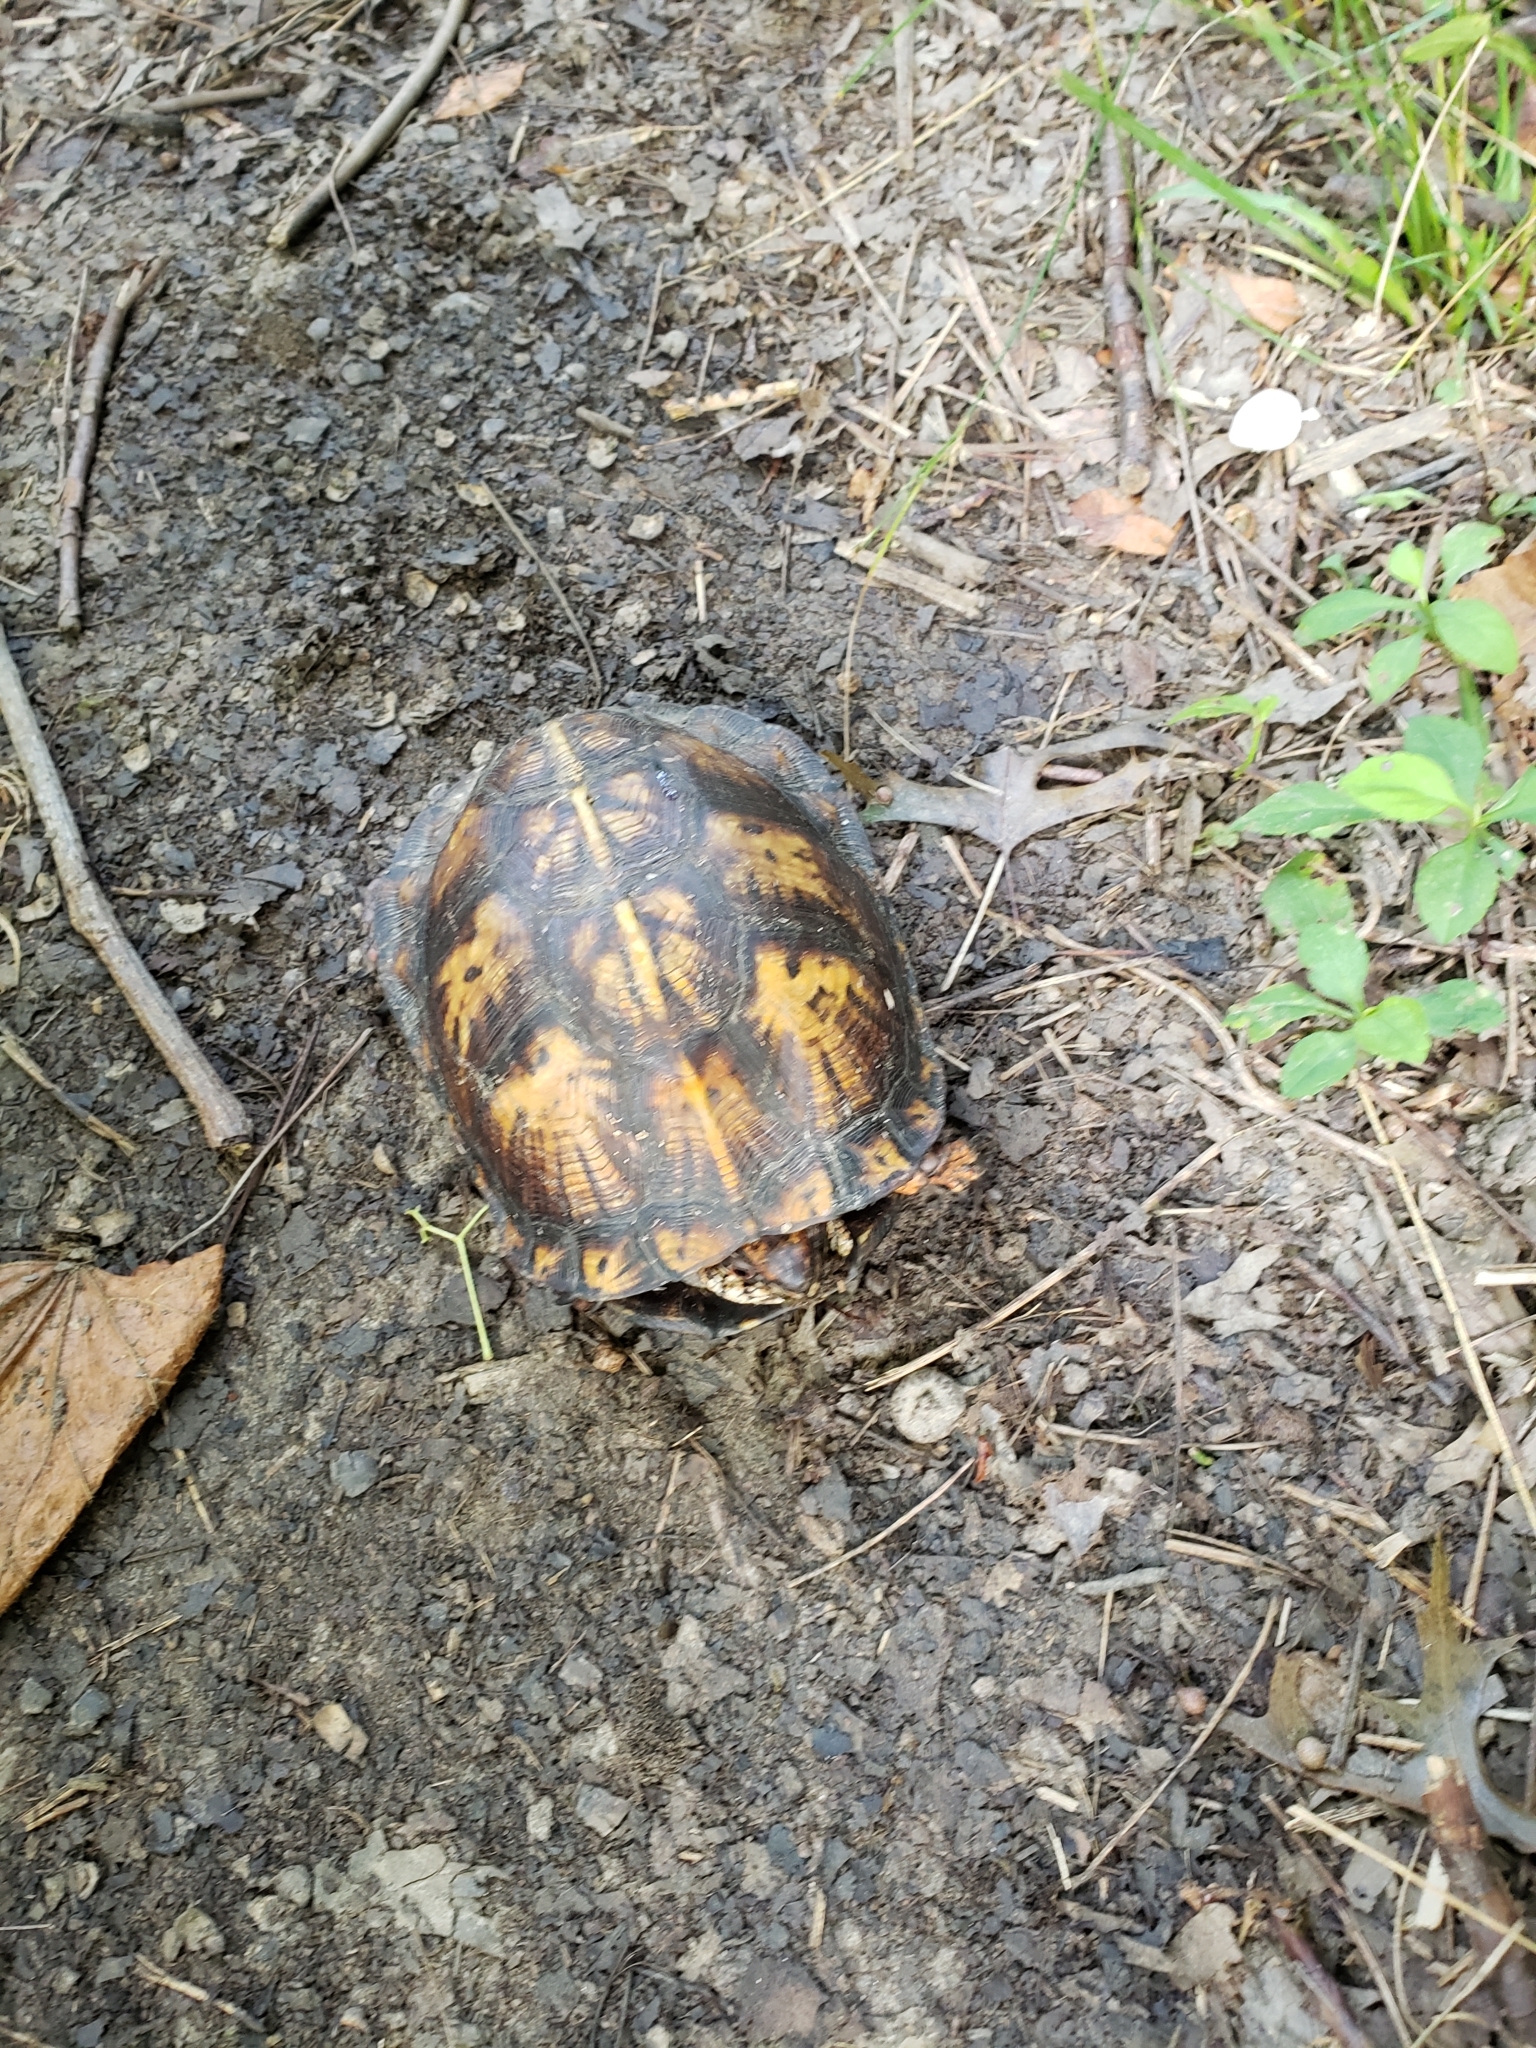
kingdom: Animalia
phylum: Chordata
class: Testudines
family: Emydidae
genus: Terrapene
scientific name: Terrapene carolina
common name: Common box turtle
